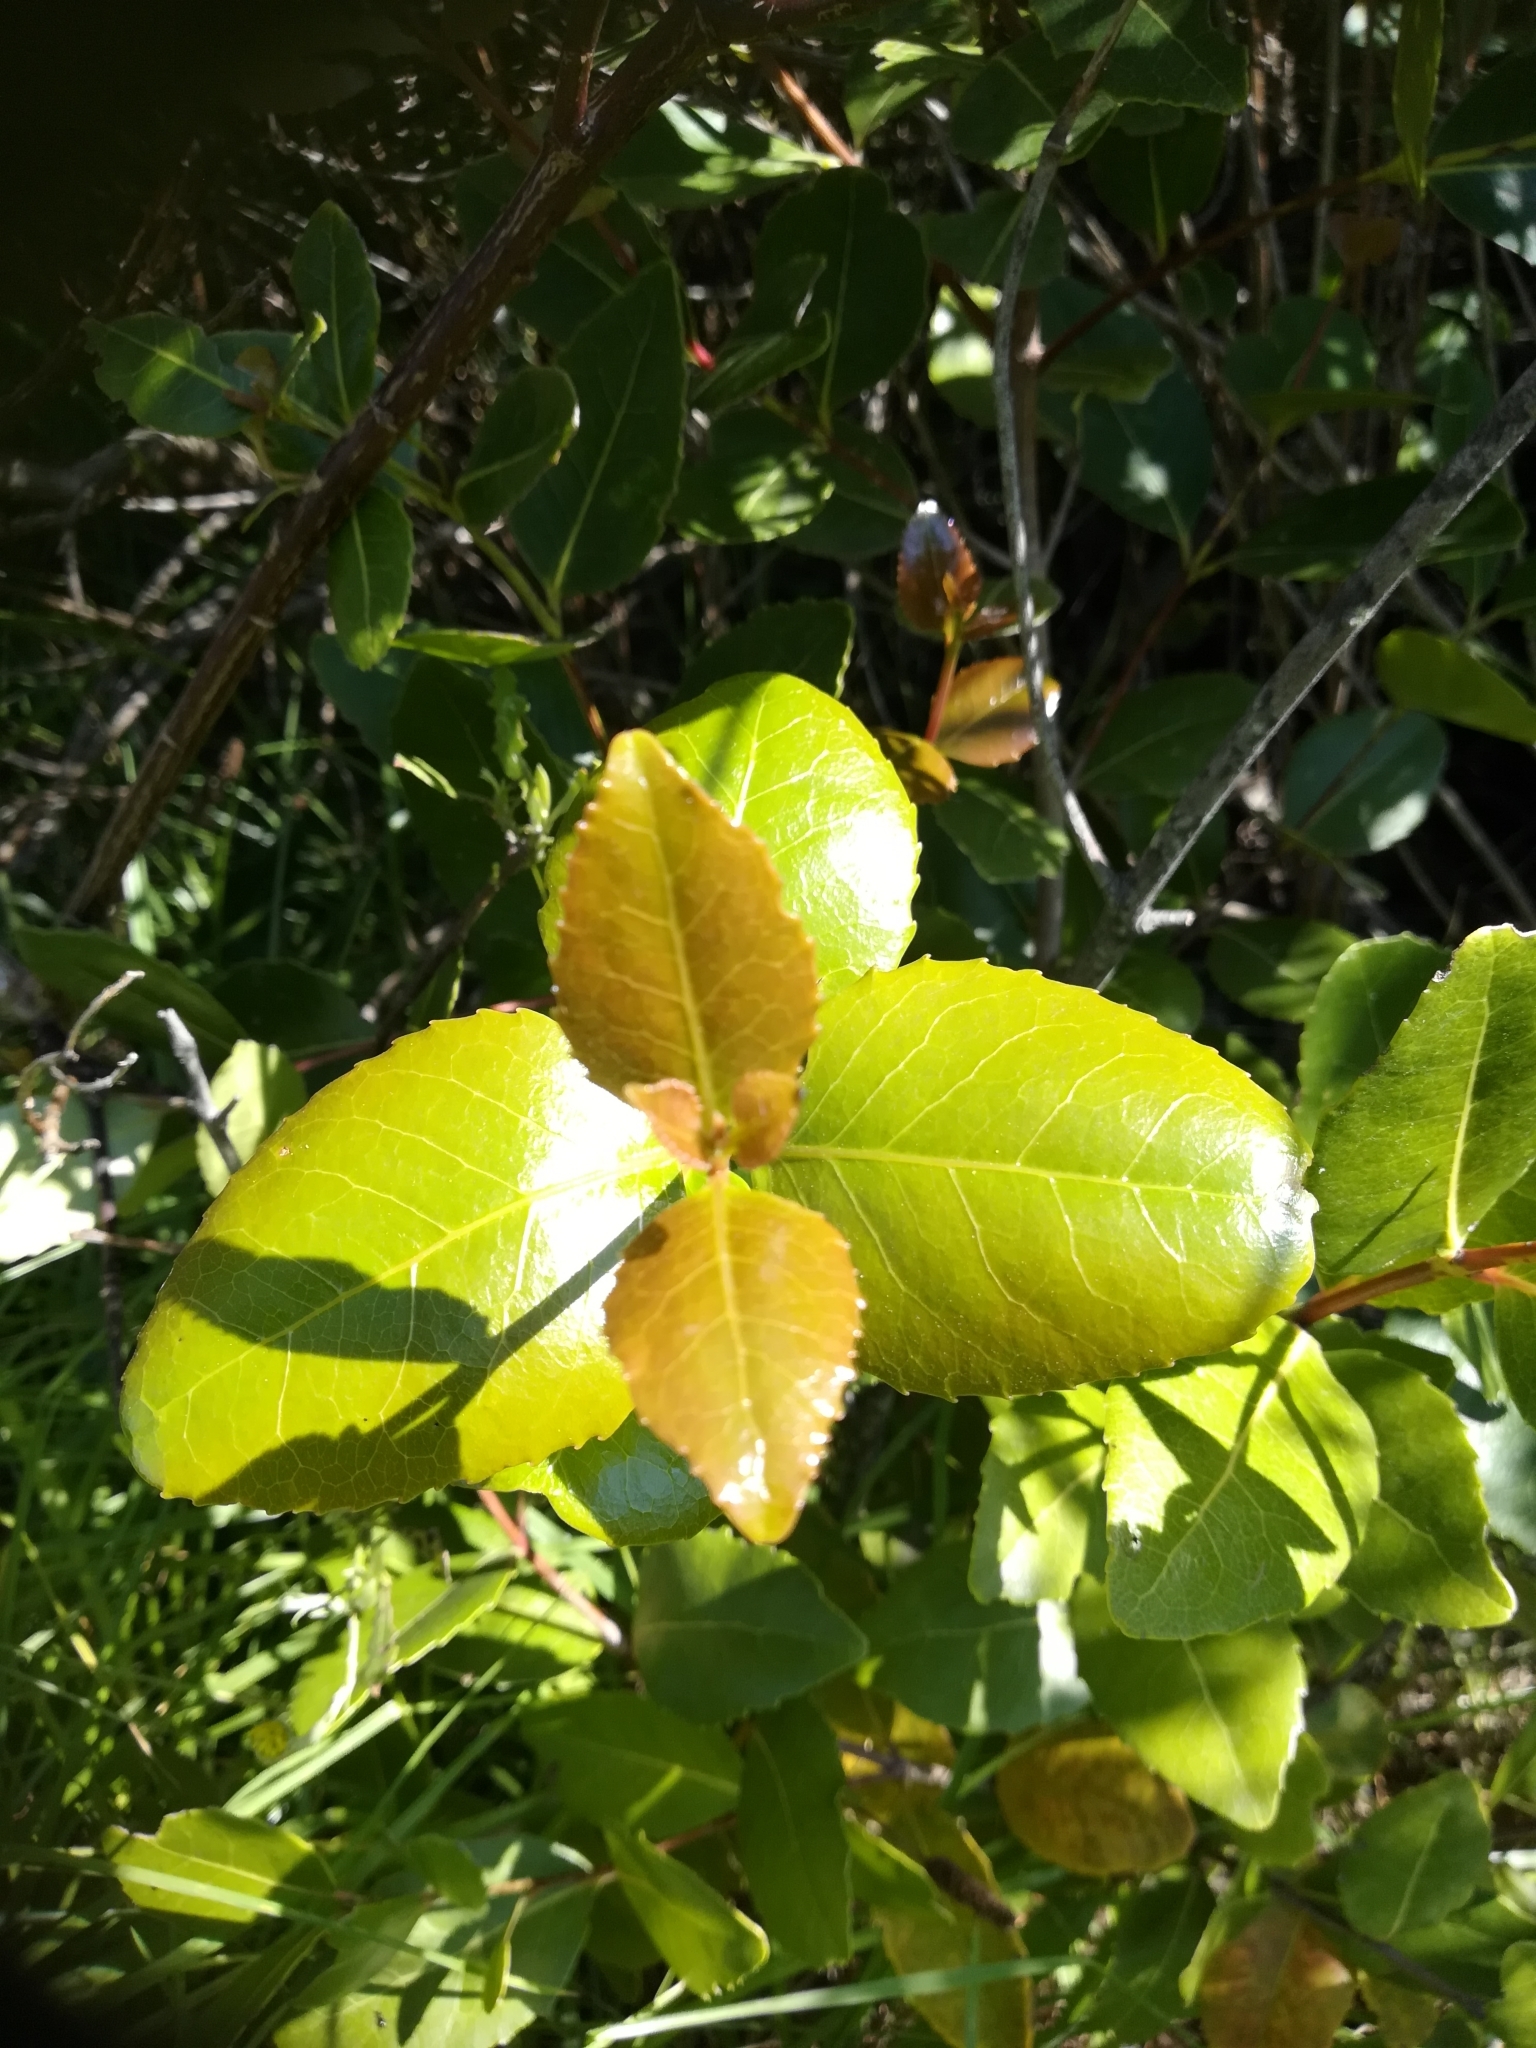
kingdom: Plantae
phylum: Tracheophyta
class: Magnoliopsida
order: Celastrales
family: Celastraceae
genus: Cassine
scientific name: Cassine peragua
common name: Cape saffron
